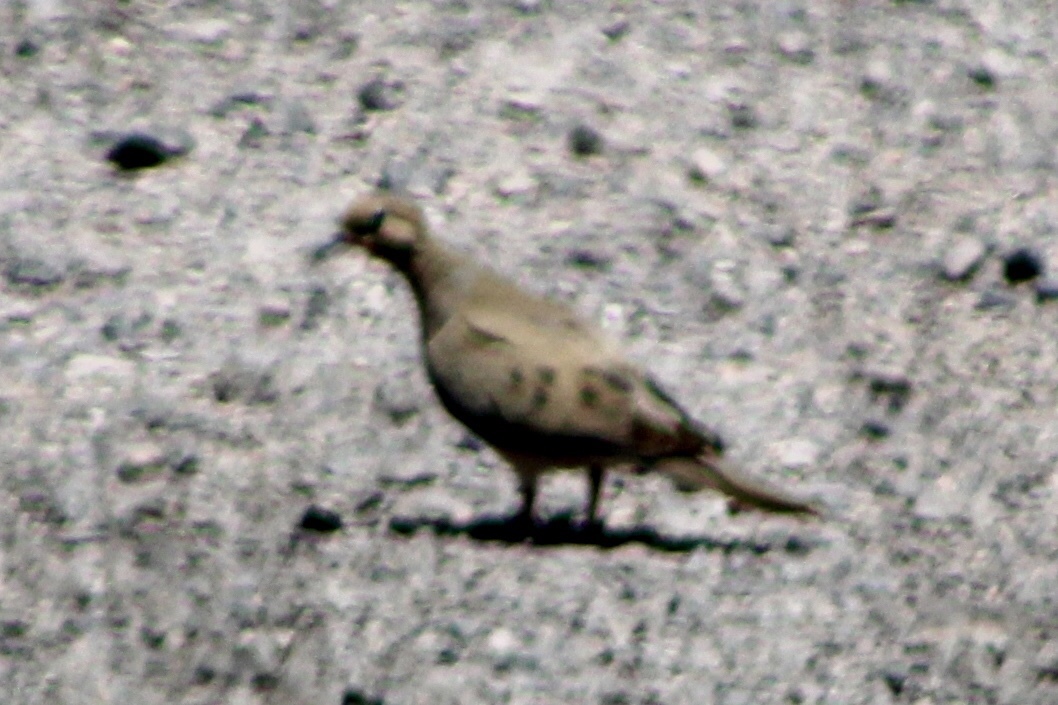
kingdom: Animalia
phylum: Chordata
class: Aves
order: Columbiformes
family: Columbidae
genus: Zenaida
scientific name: Zenaida macroura
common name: Mourning dove
